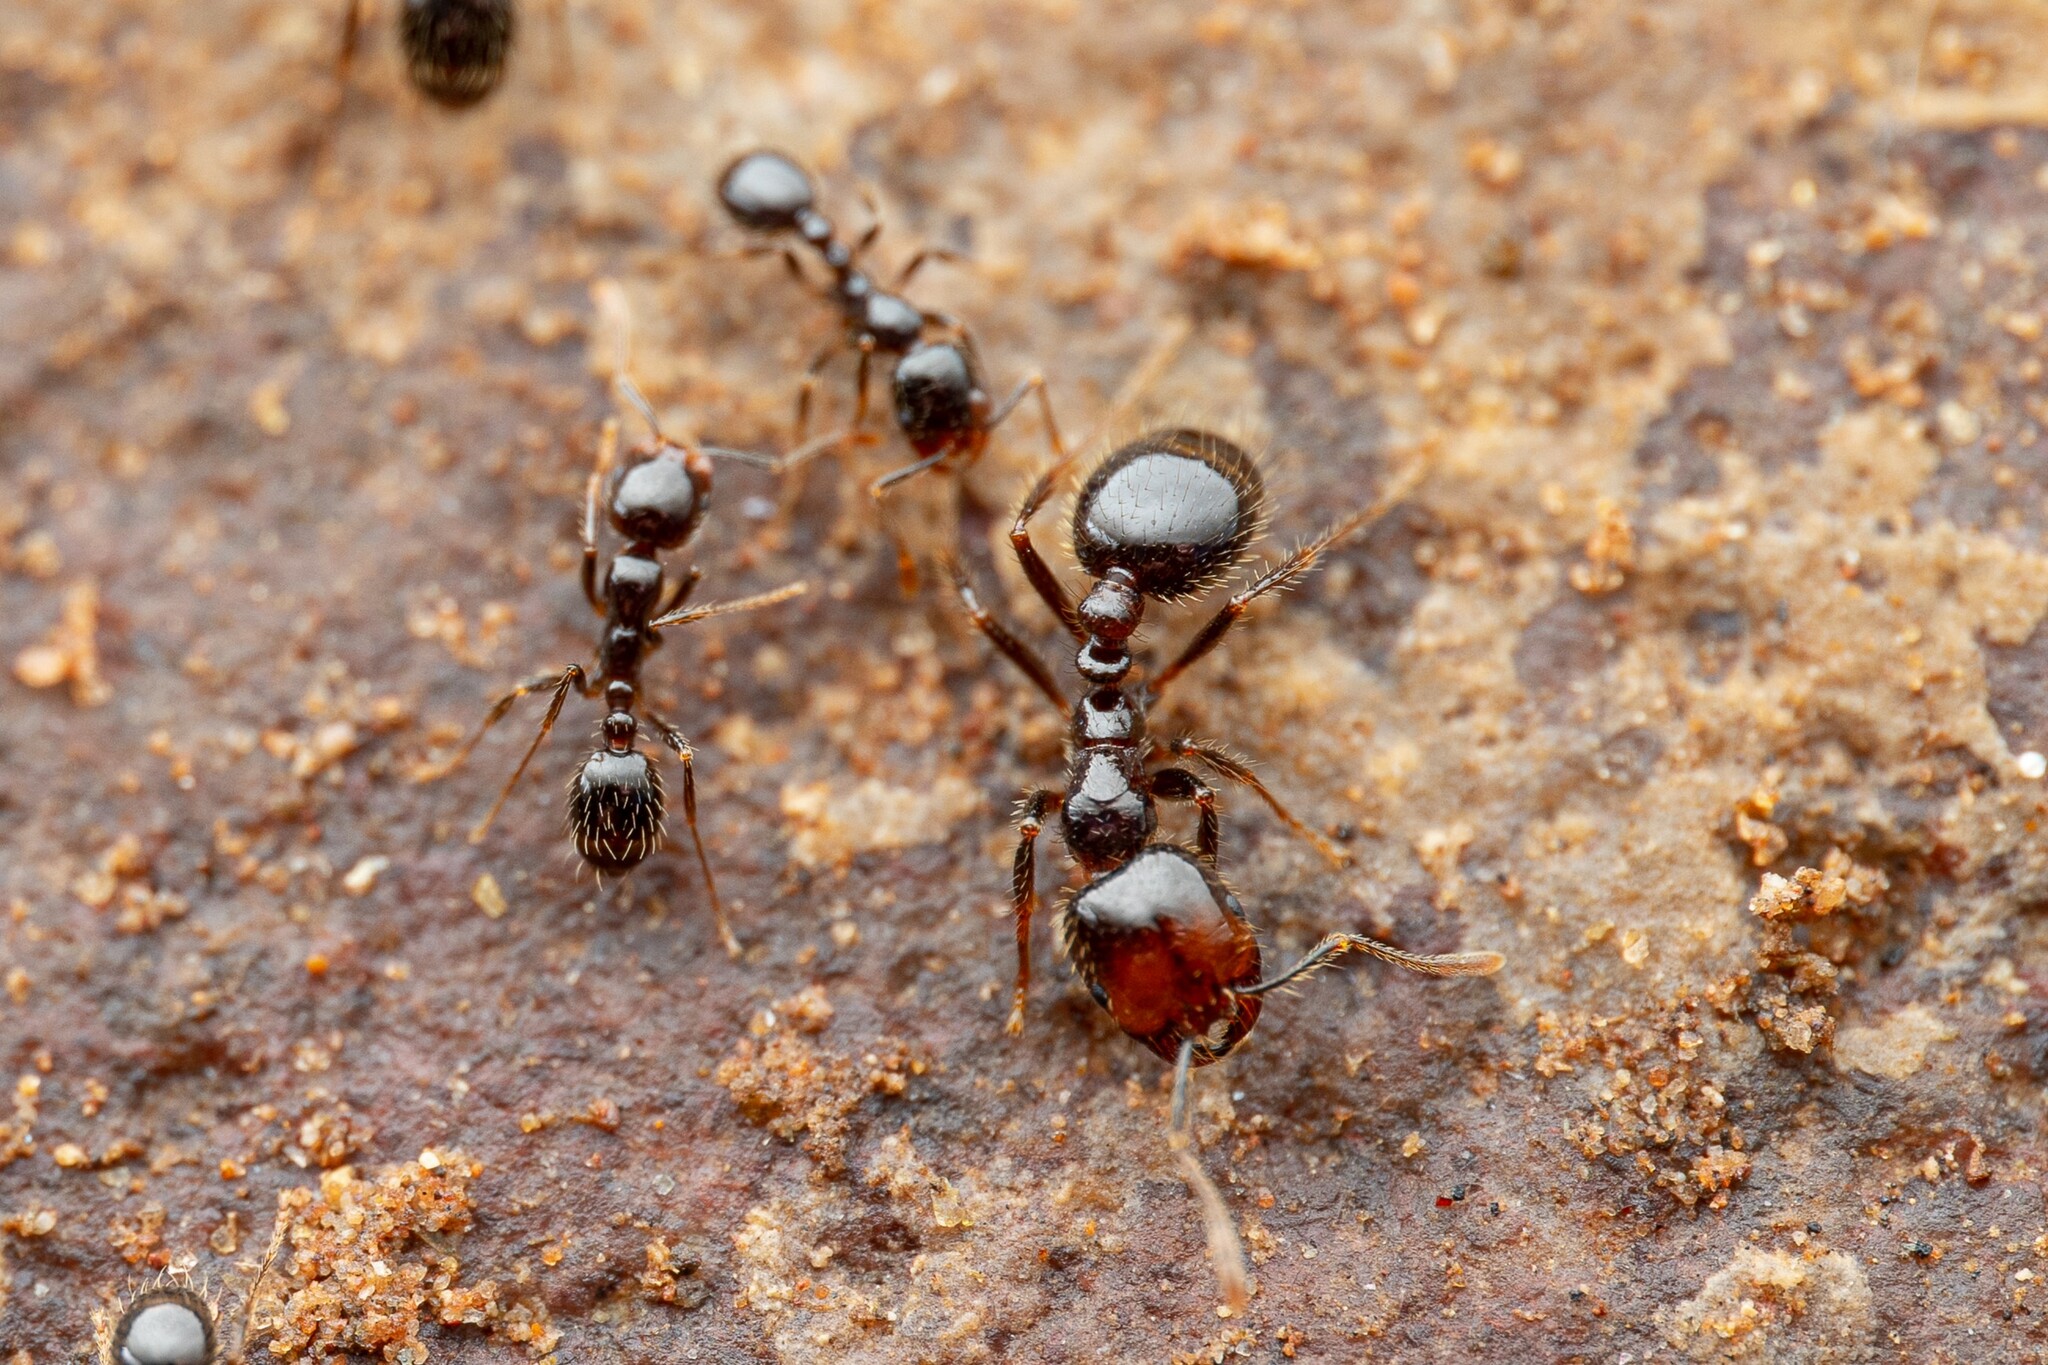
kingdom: Animalia
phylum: Arthropoda
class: Insecta
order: Hymenoptera
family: Formicidae
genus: Solenopsis
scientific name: Solenopsis xyloni
